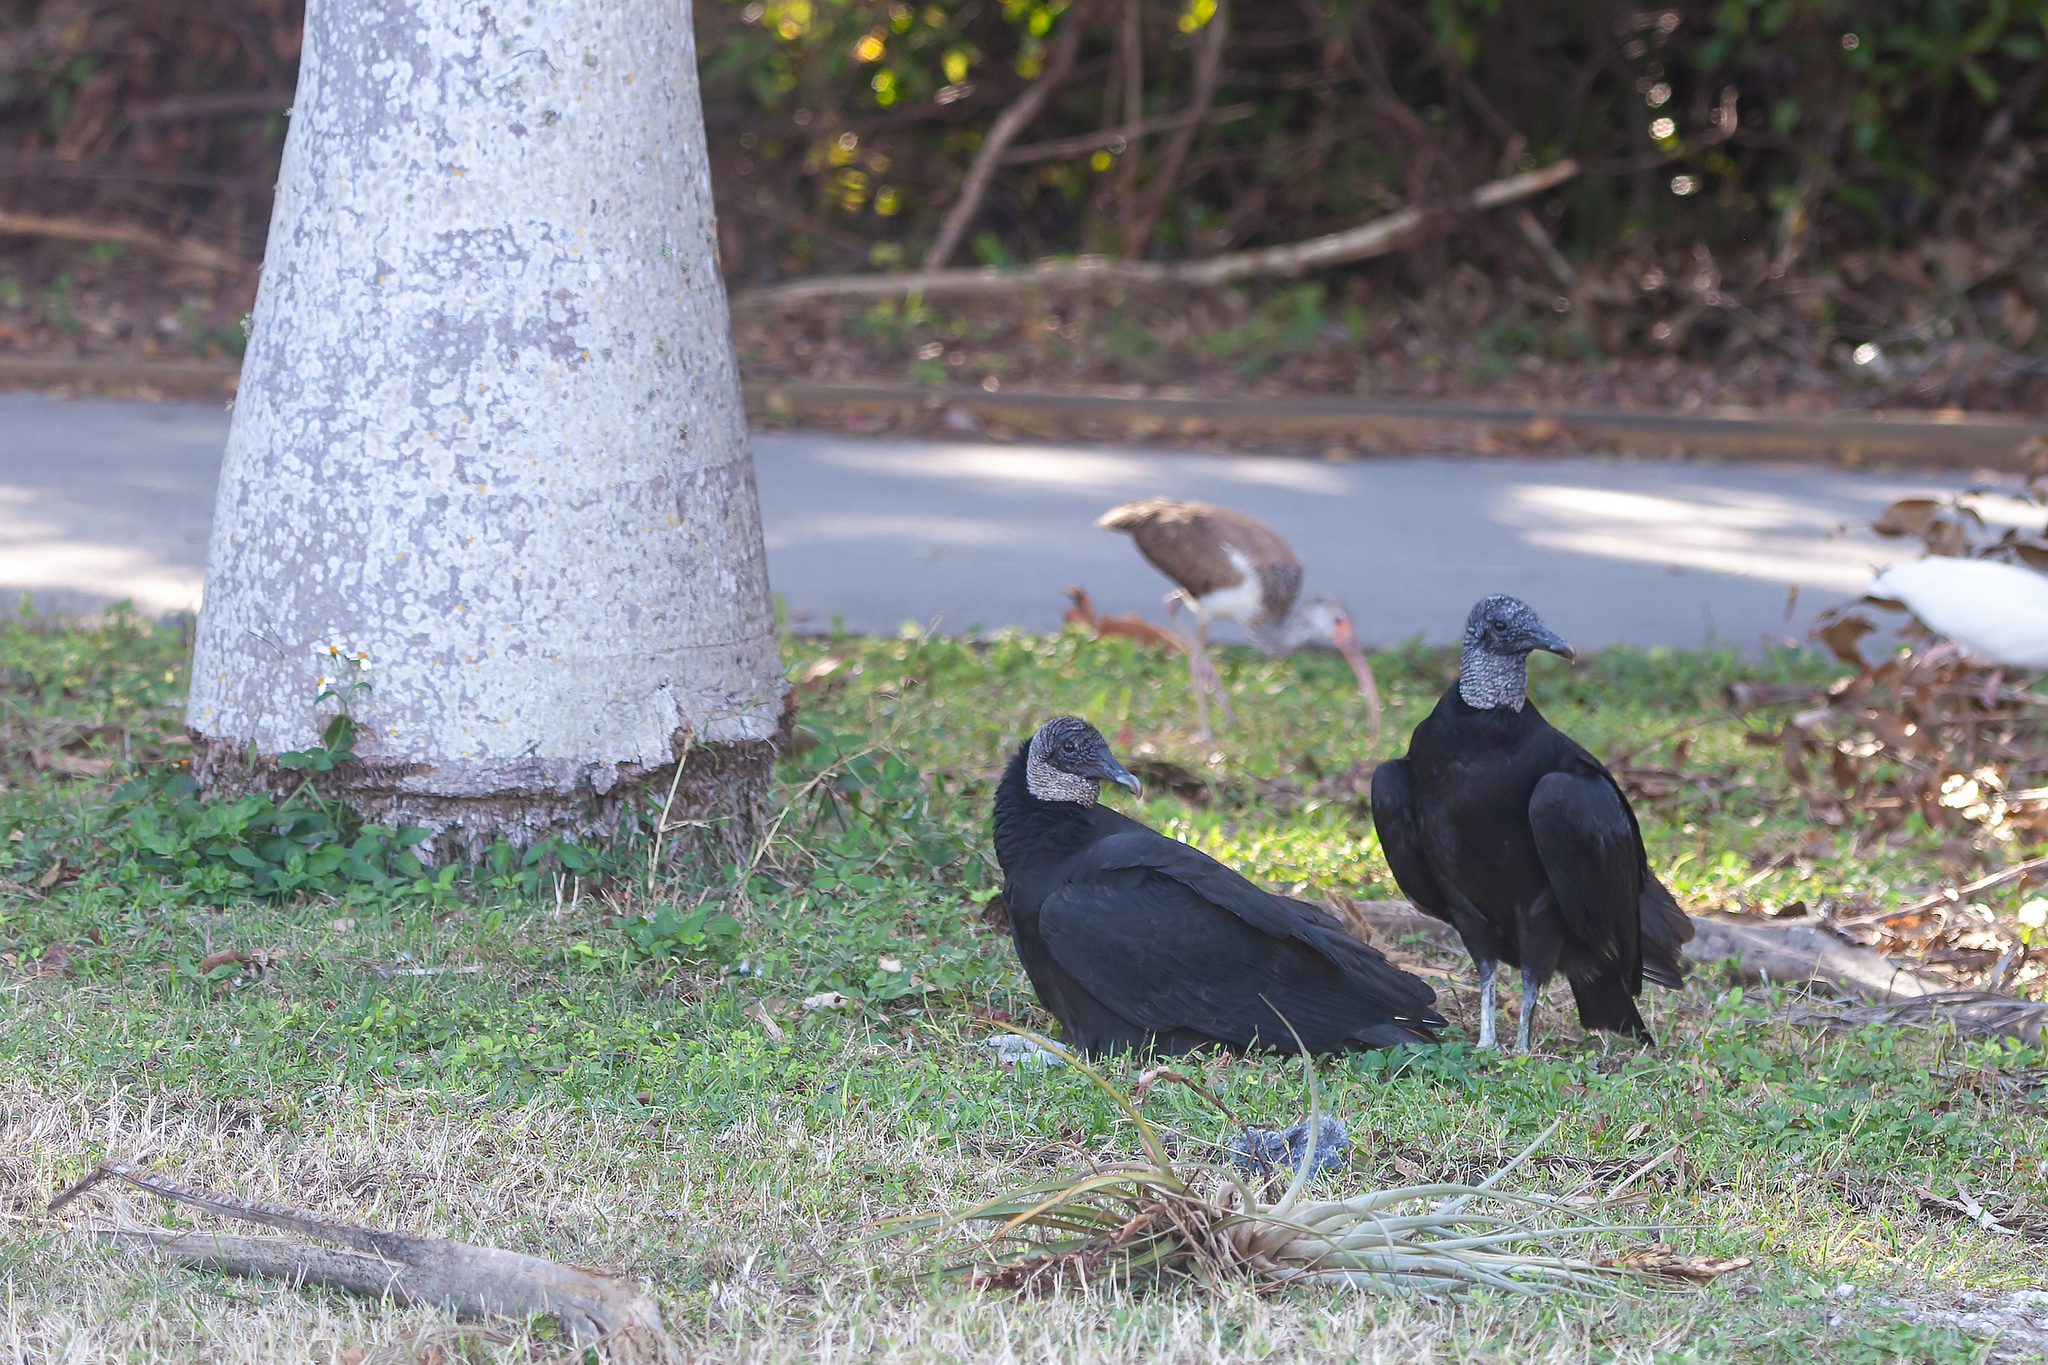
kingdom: Animalia
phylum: Chordata
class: Aves
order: Accipitriformes
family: Cathartidae
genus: Coragyps
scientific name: Coragyps atratus
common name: Black vulture
